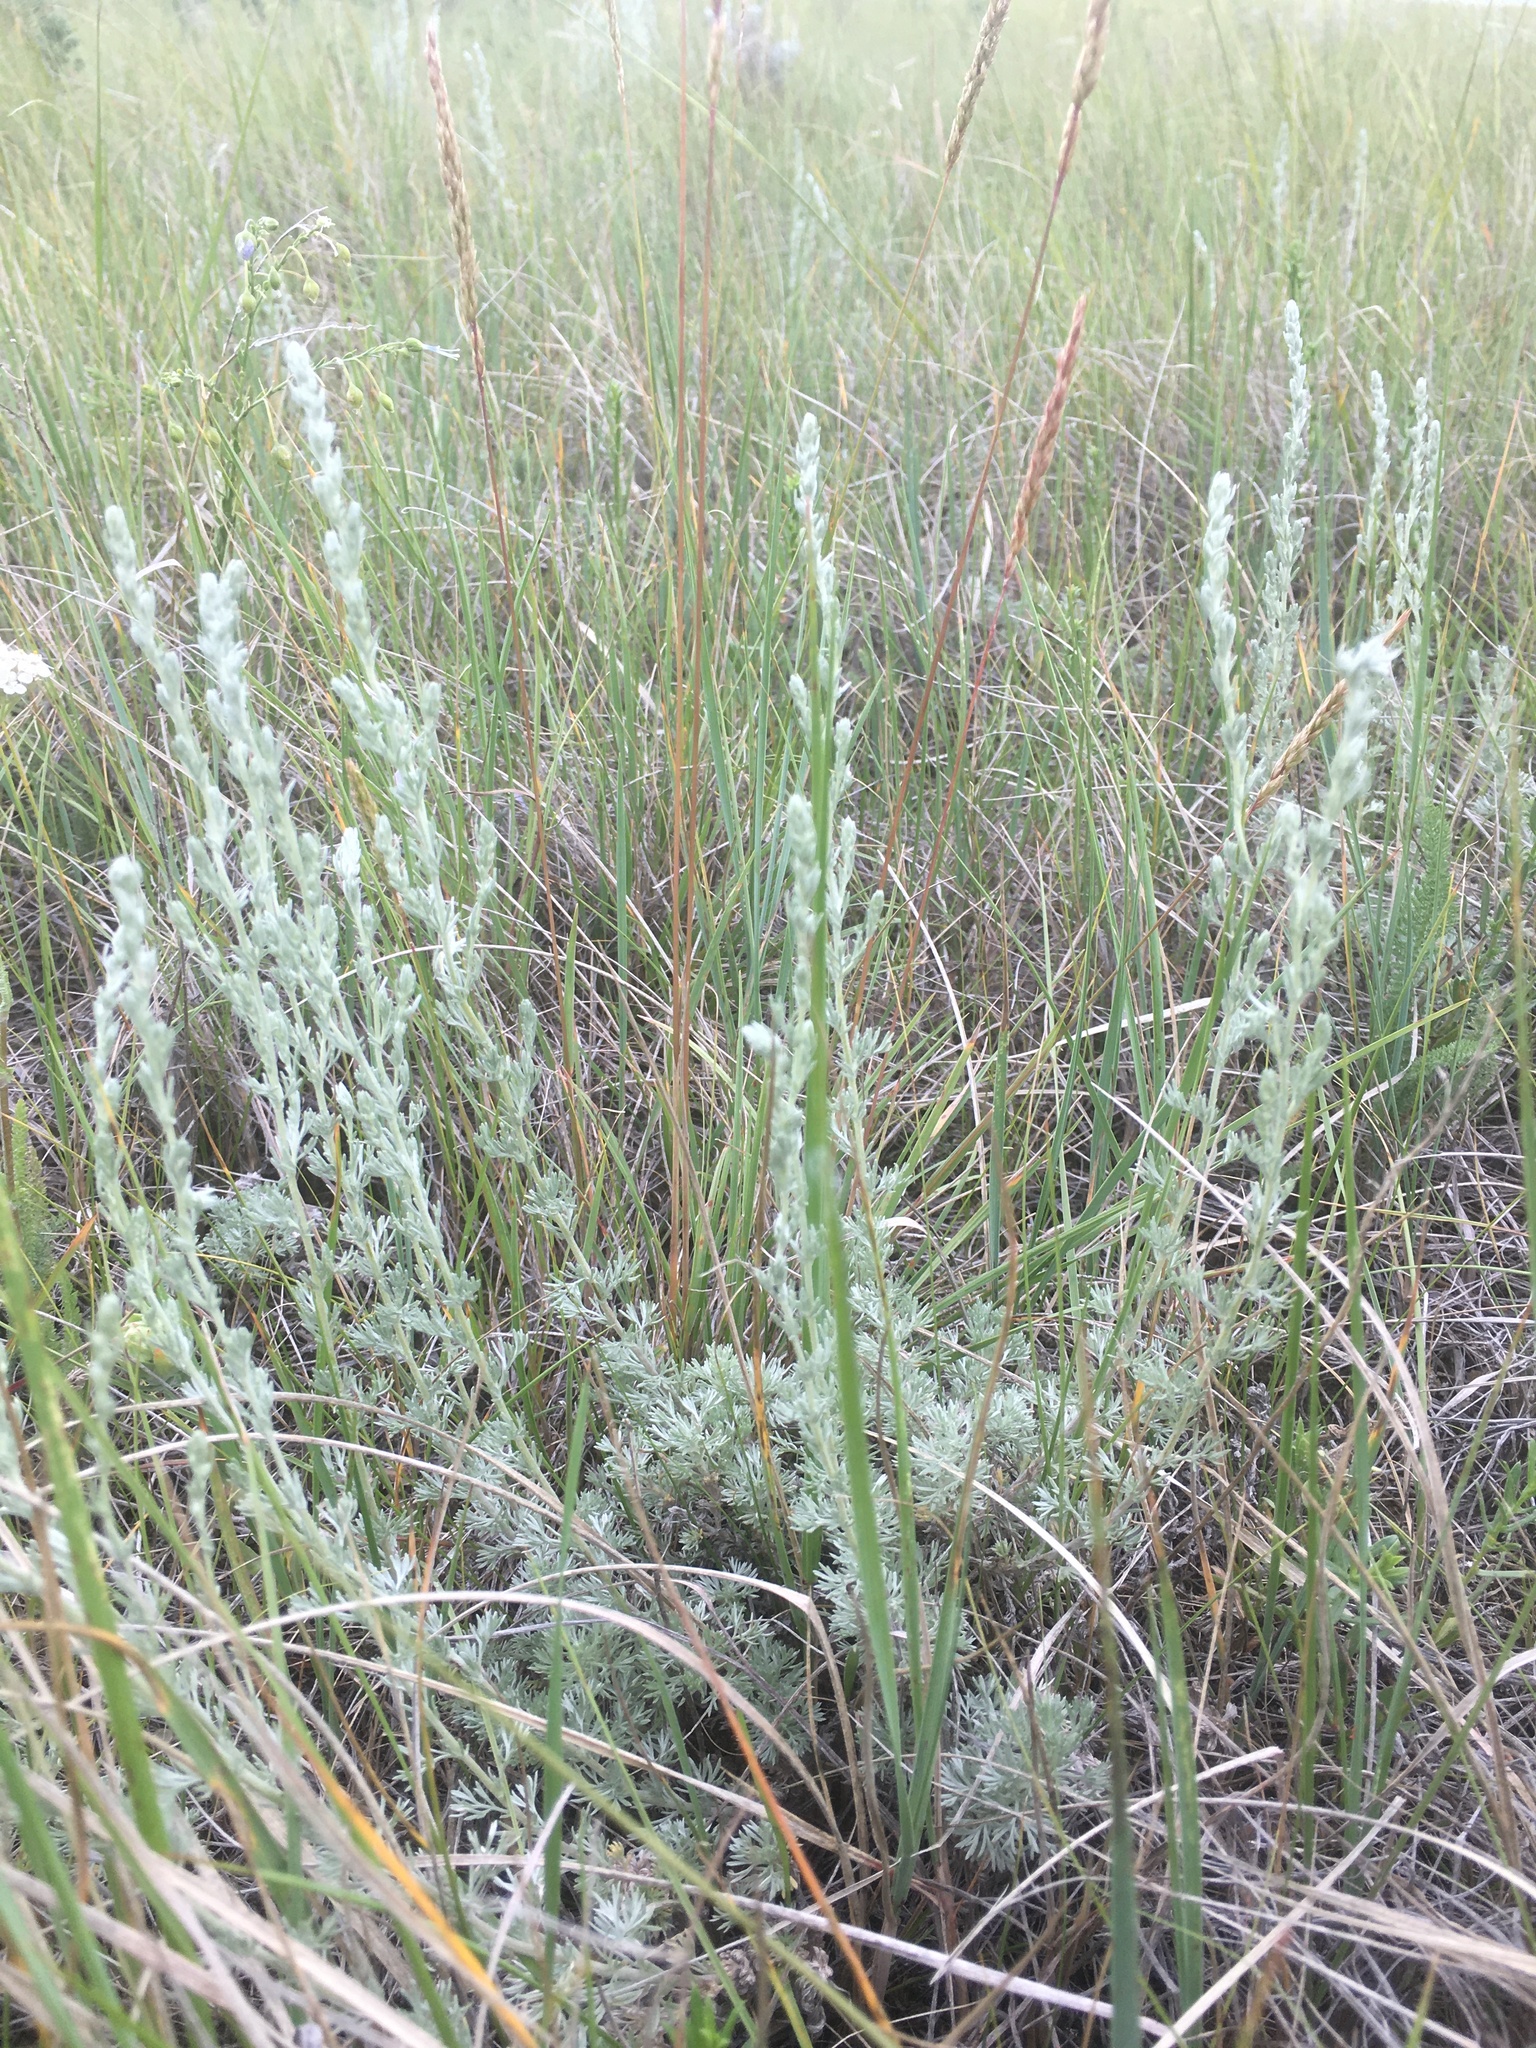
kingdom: Plantae
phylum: Tracheophyta
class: Magnoliopsida
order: Asterales
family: Asteraceae
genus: Artemisia
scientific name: Artemisia frigida
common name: Prairie sagewort
